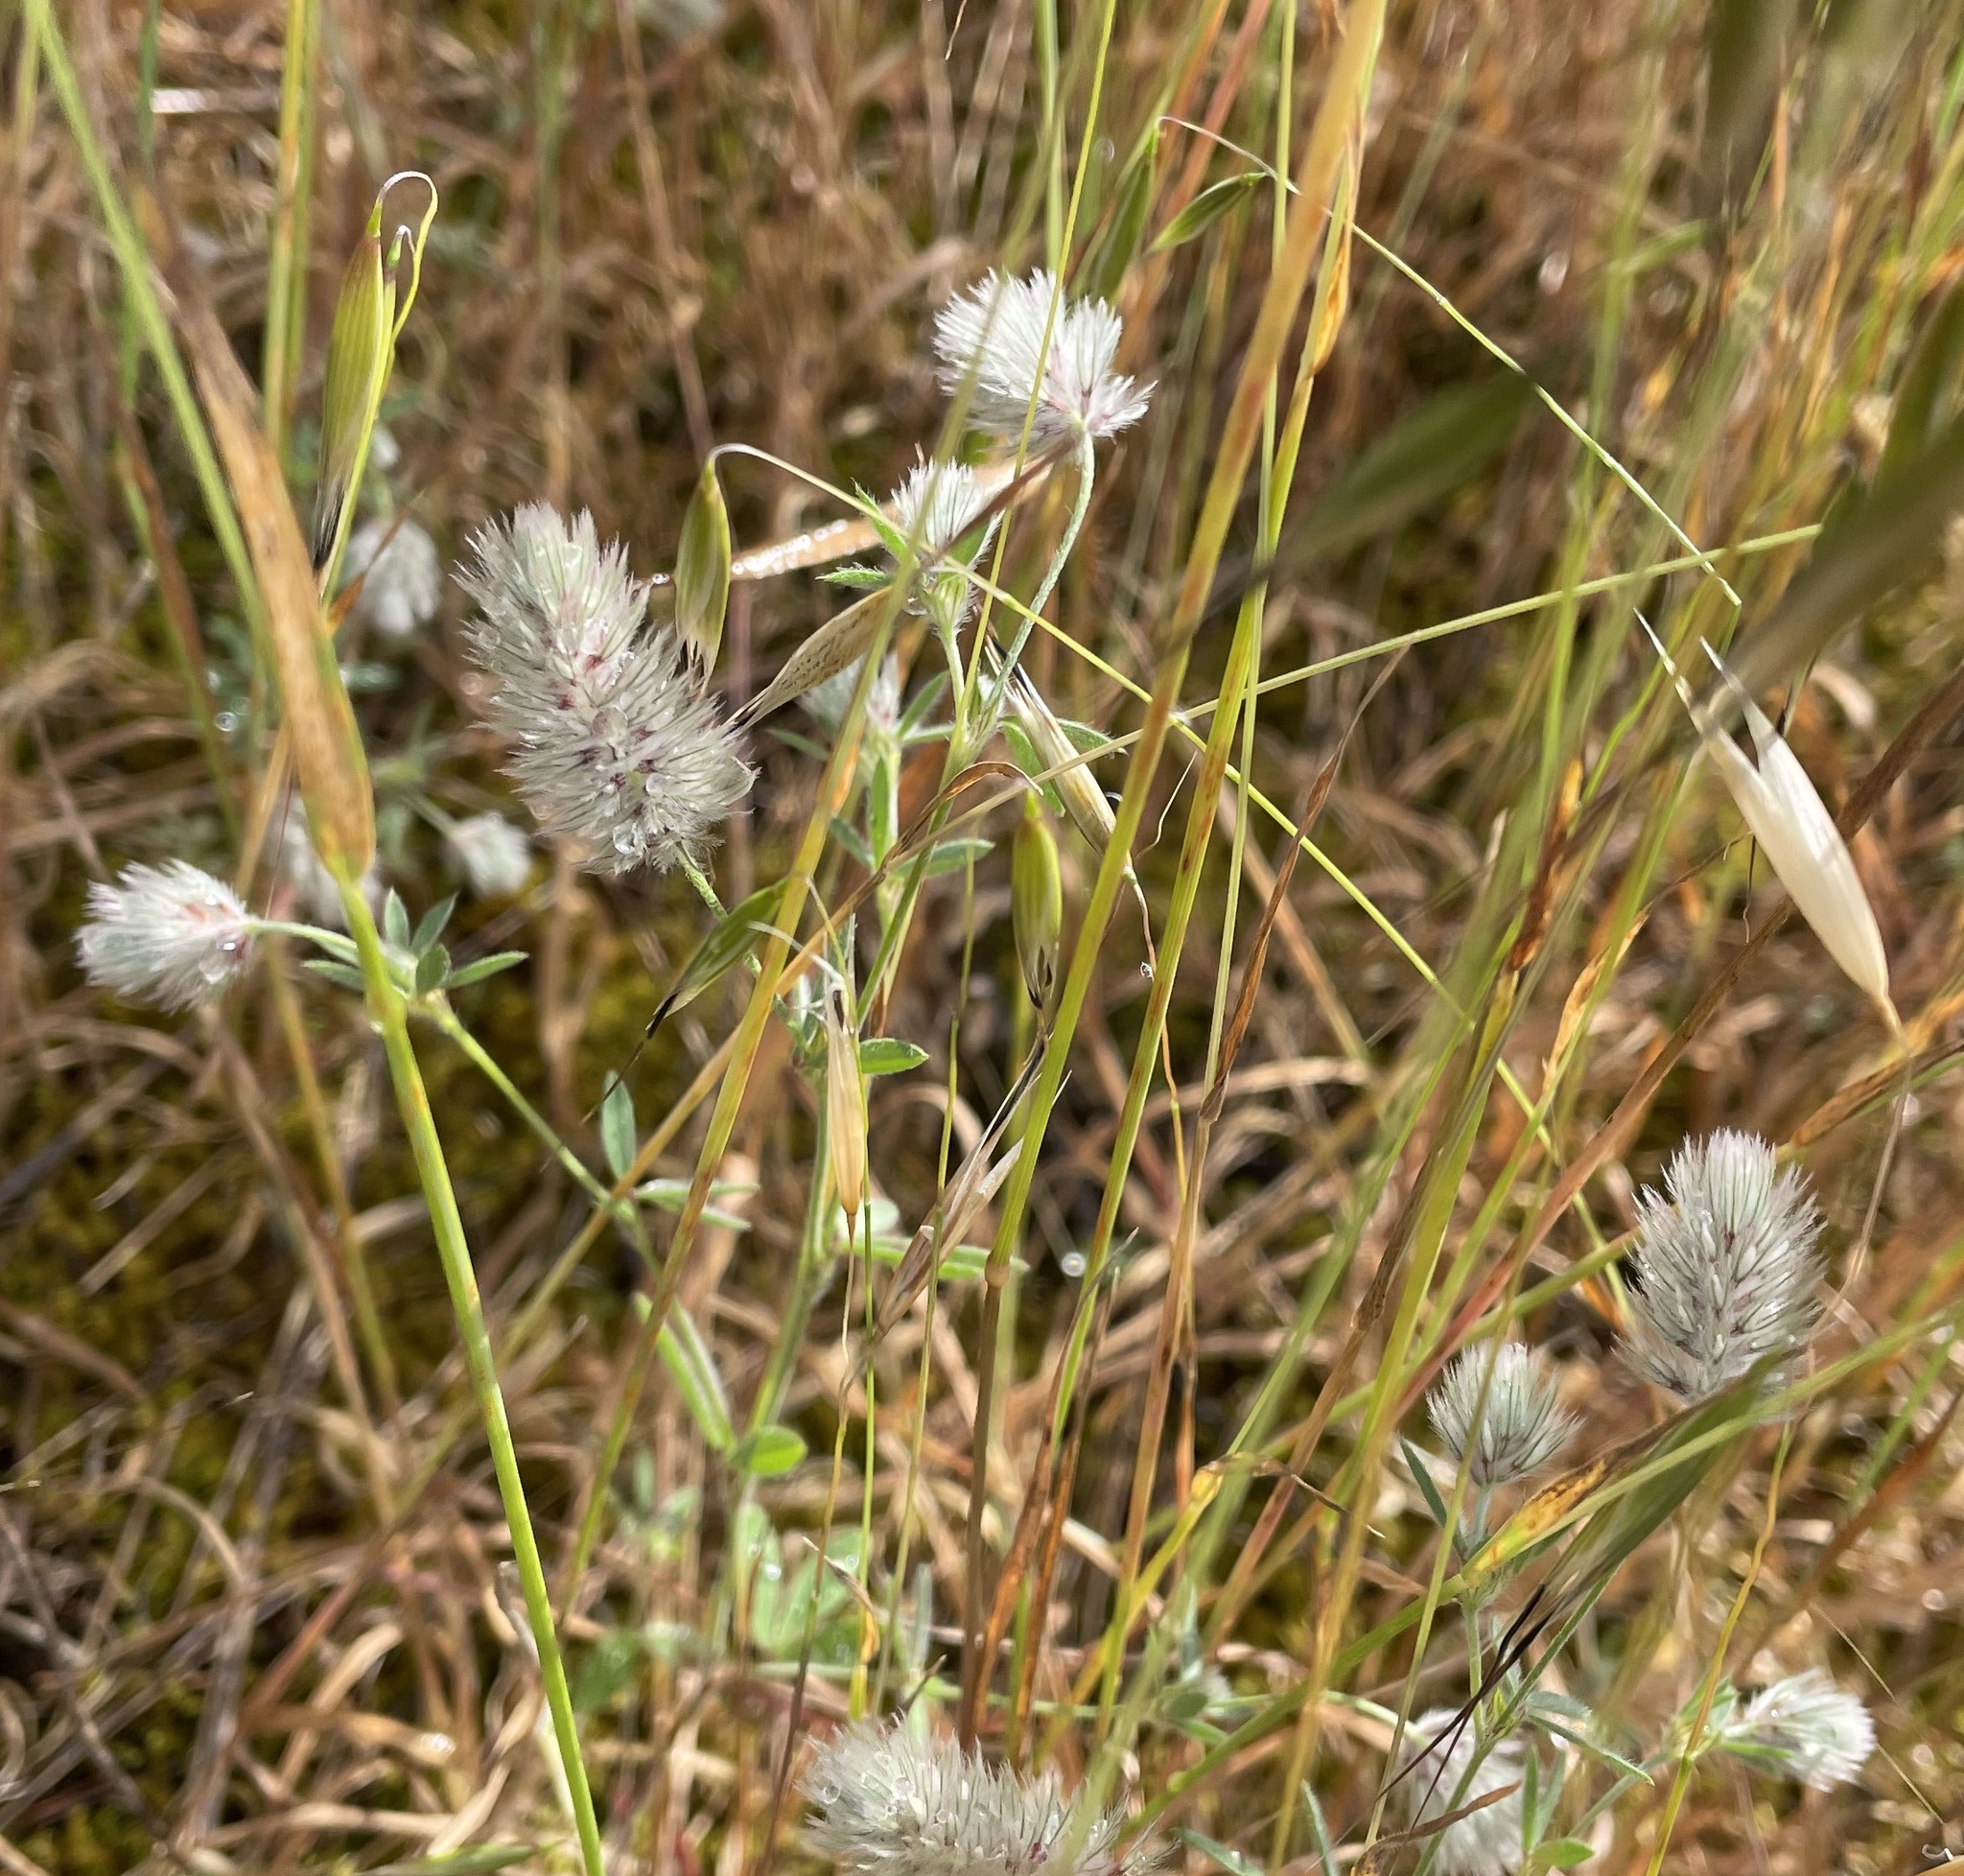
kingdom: Plantae
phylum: Tracheophyta
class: Magnoliopsida
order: Fabales
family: Fabaceae
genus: Trifolium
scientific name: Trifolium arvense
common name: Hare's-foot clover
